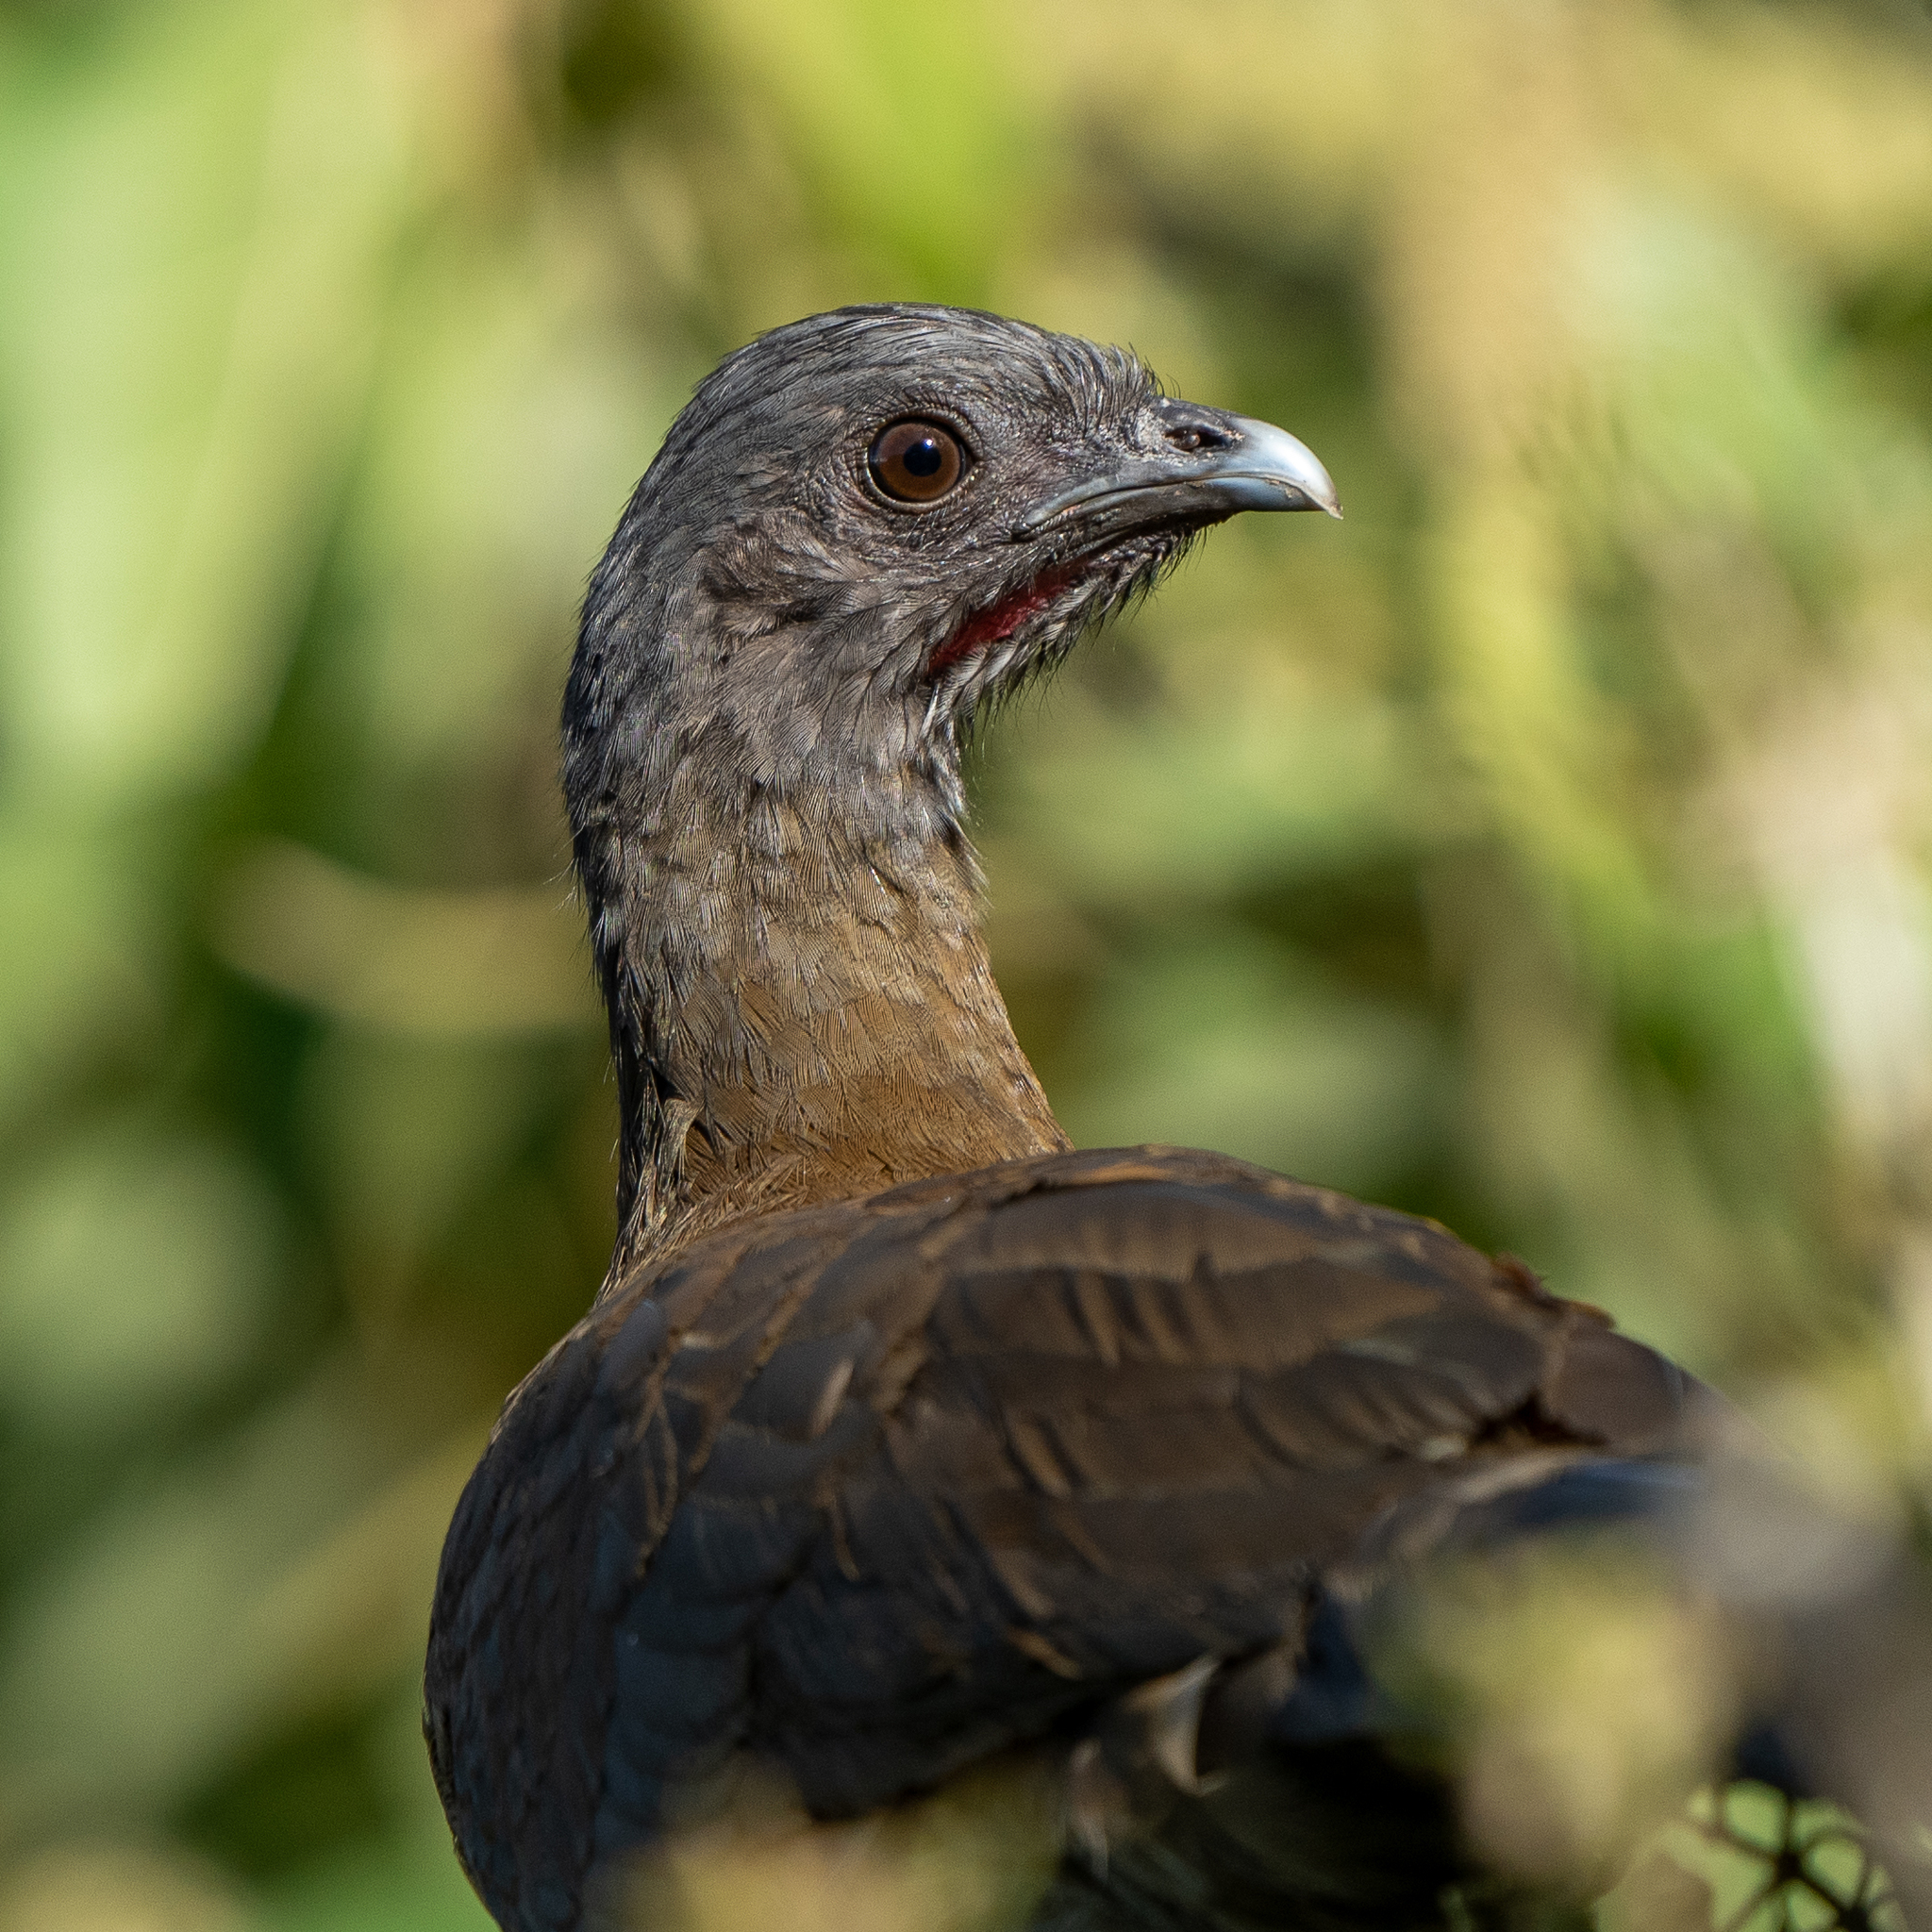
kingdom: Animalia
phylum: Chordata
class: Aves
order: Galliformes
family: Cracidae
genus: Ortalis
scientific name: Ortalis cinereiceps
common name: Grey-headed chachalaca
